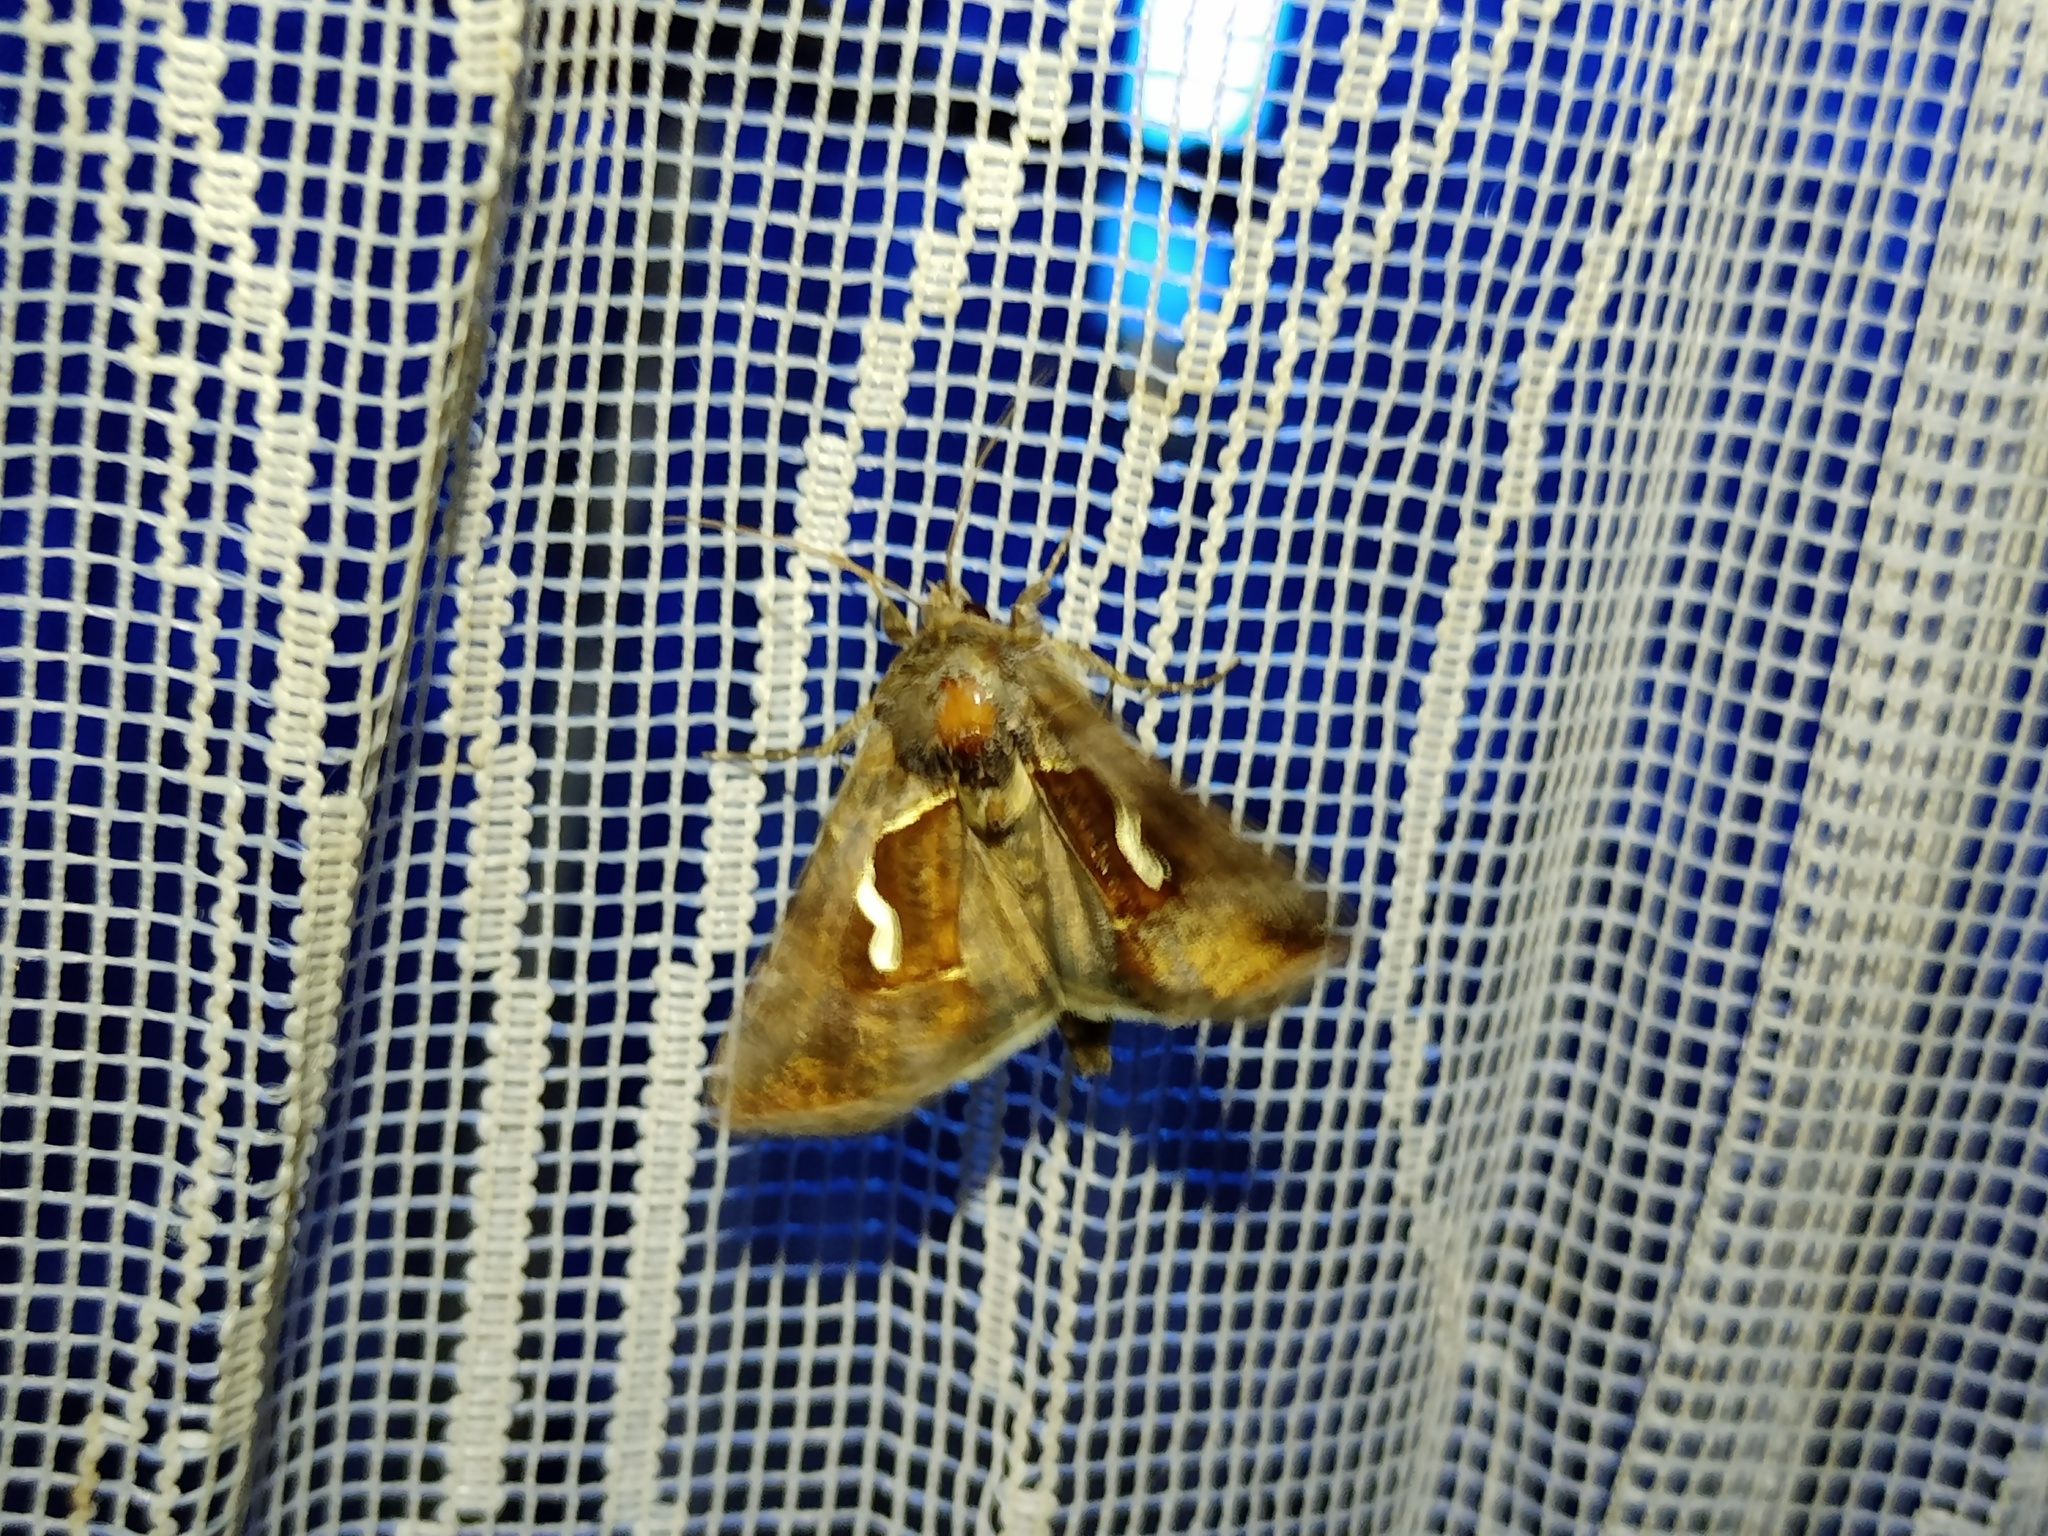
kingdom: Animalia
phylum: Arthropoda
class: Insecta
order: Lepidoptera
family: Noctuidae
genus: Macdunnoughia
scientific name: Macdunnoughia confusa
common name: Dewick's plusia
